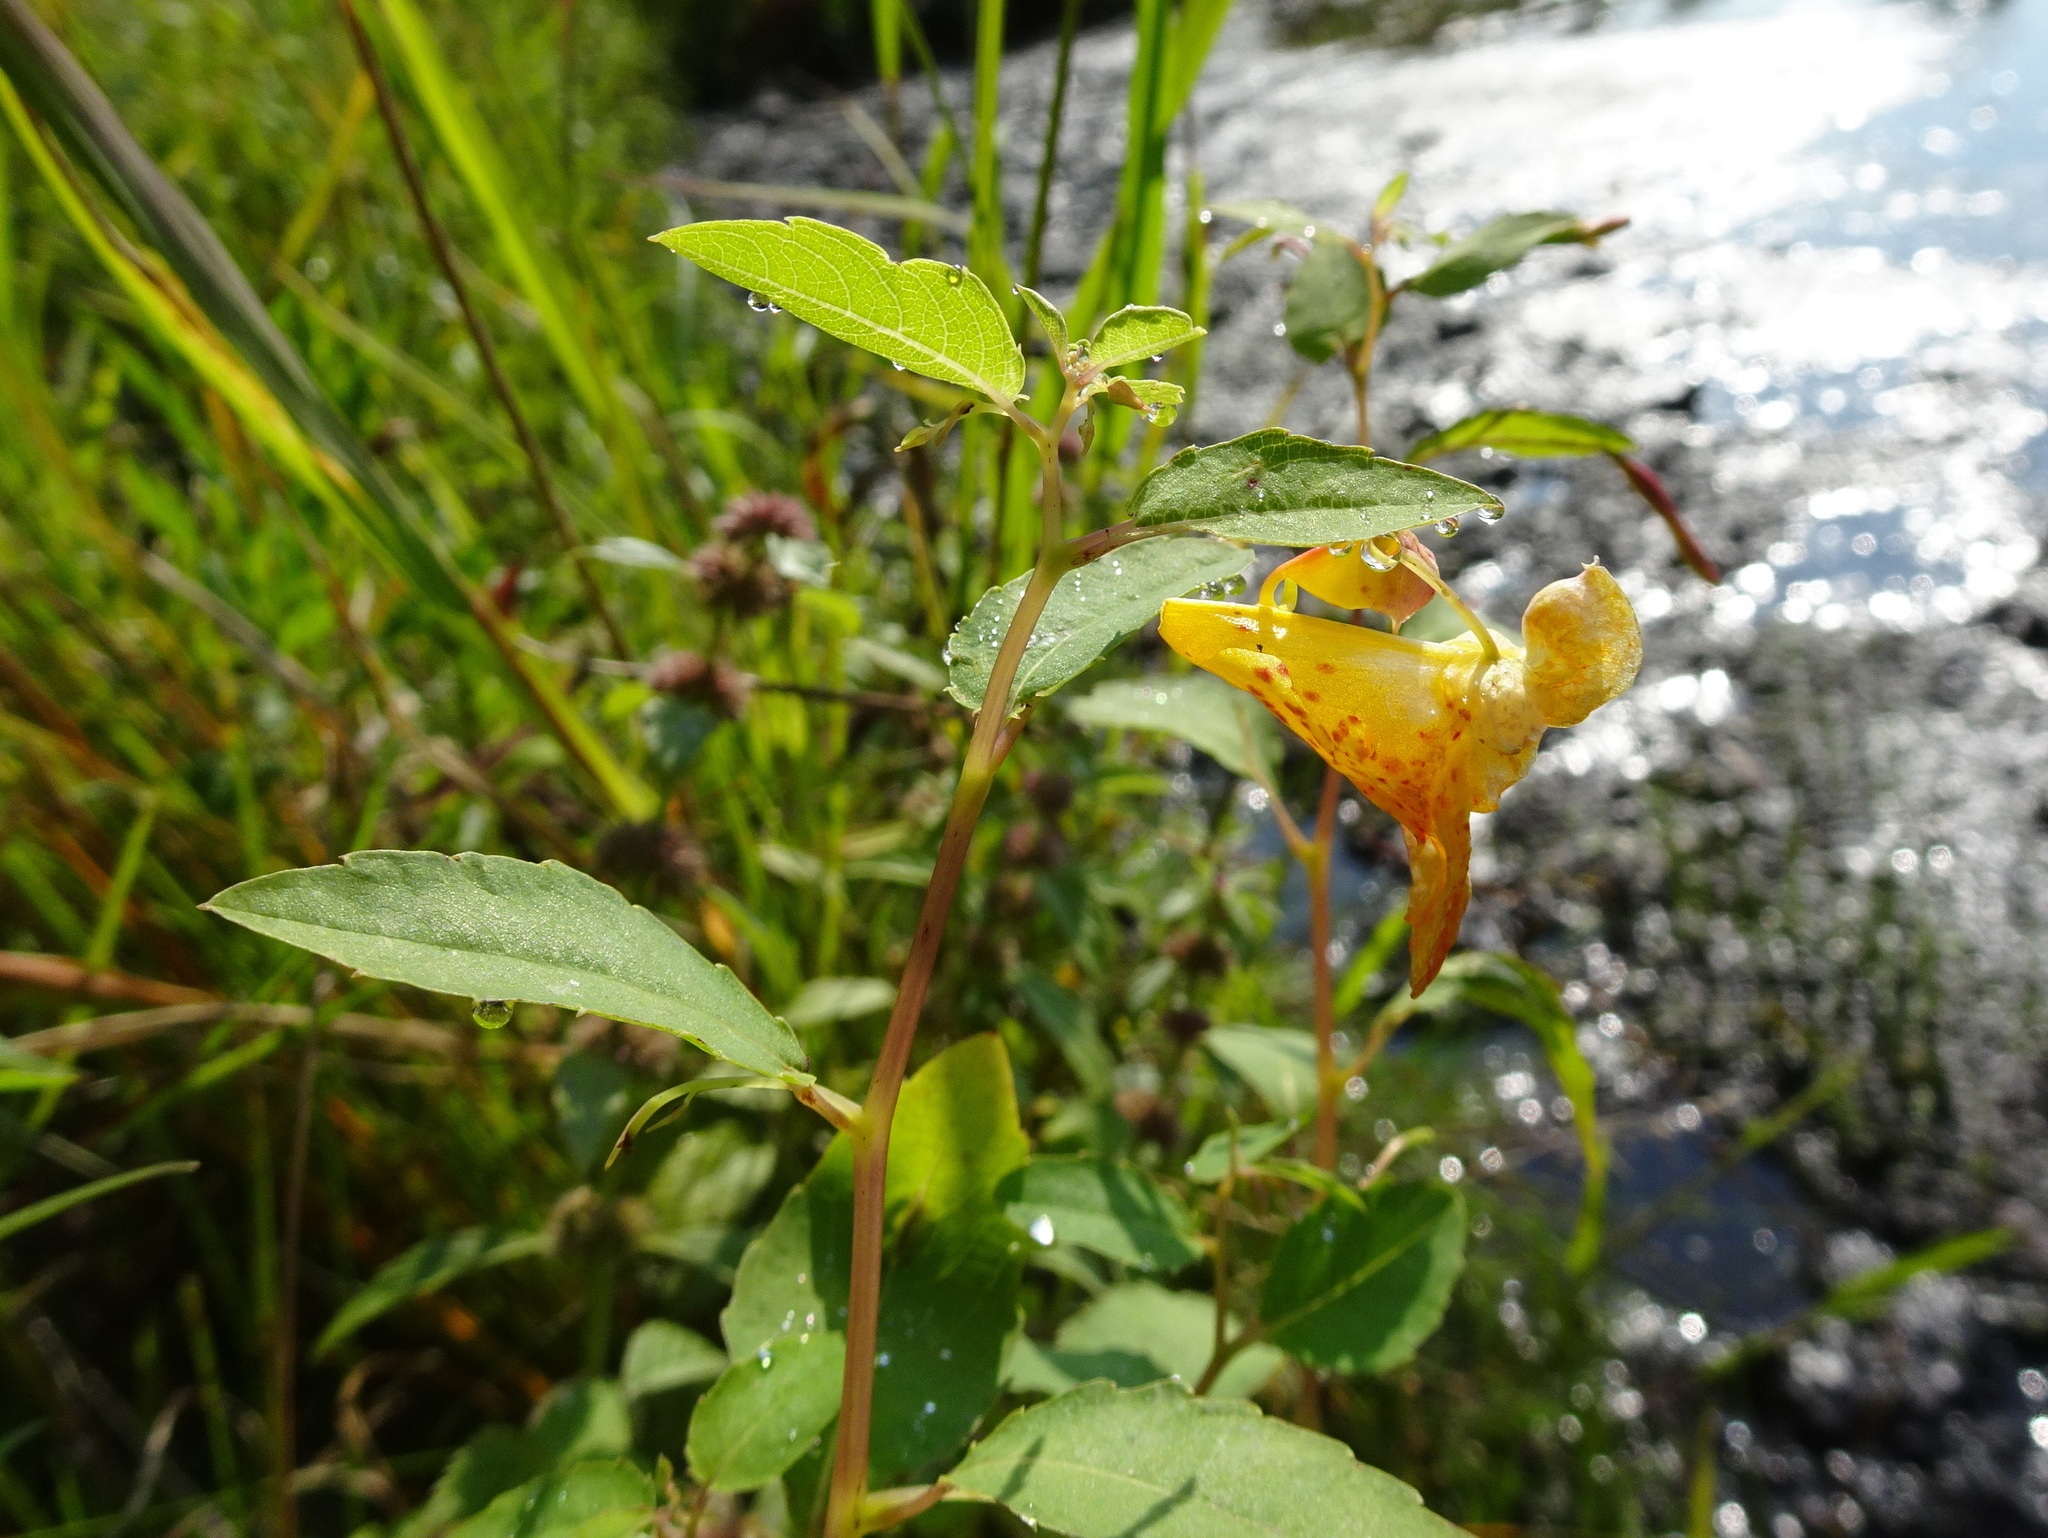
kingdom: Plantae
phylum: Tracheophyta
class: Magnoliopsida
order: Ericales
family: Balsaminaceae
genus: Impatiens
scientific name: Impatiens capensis
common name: Orange balsam
